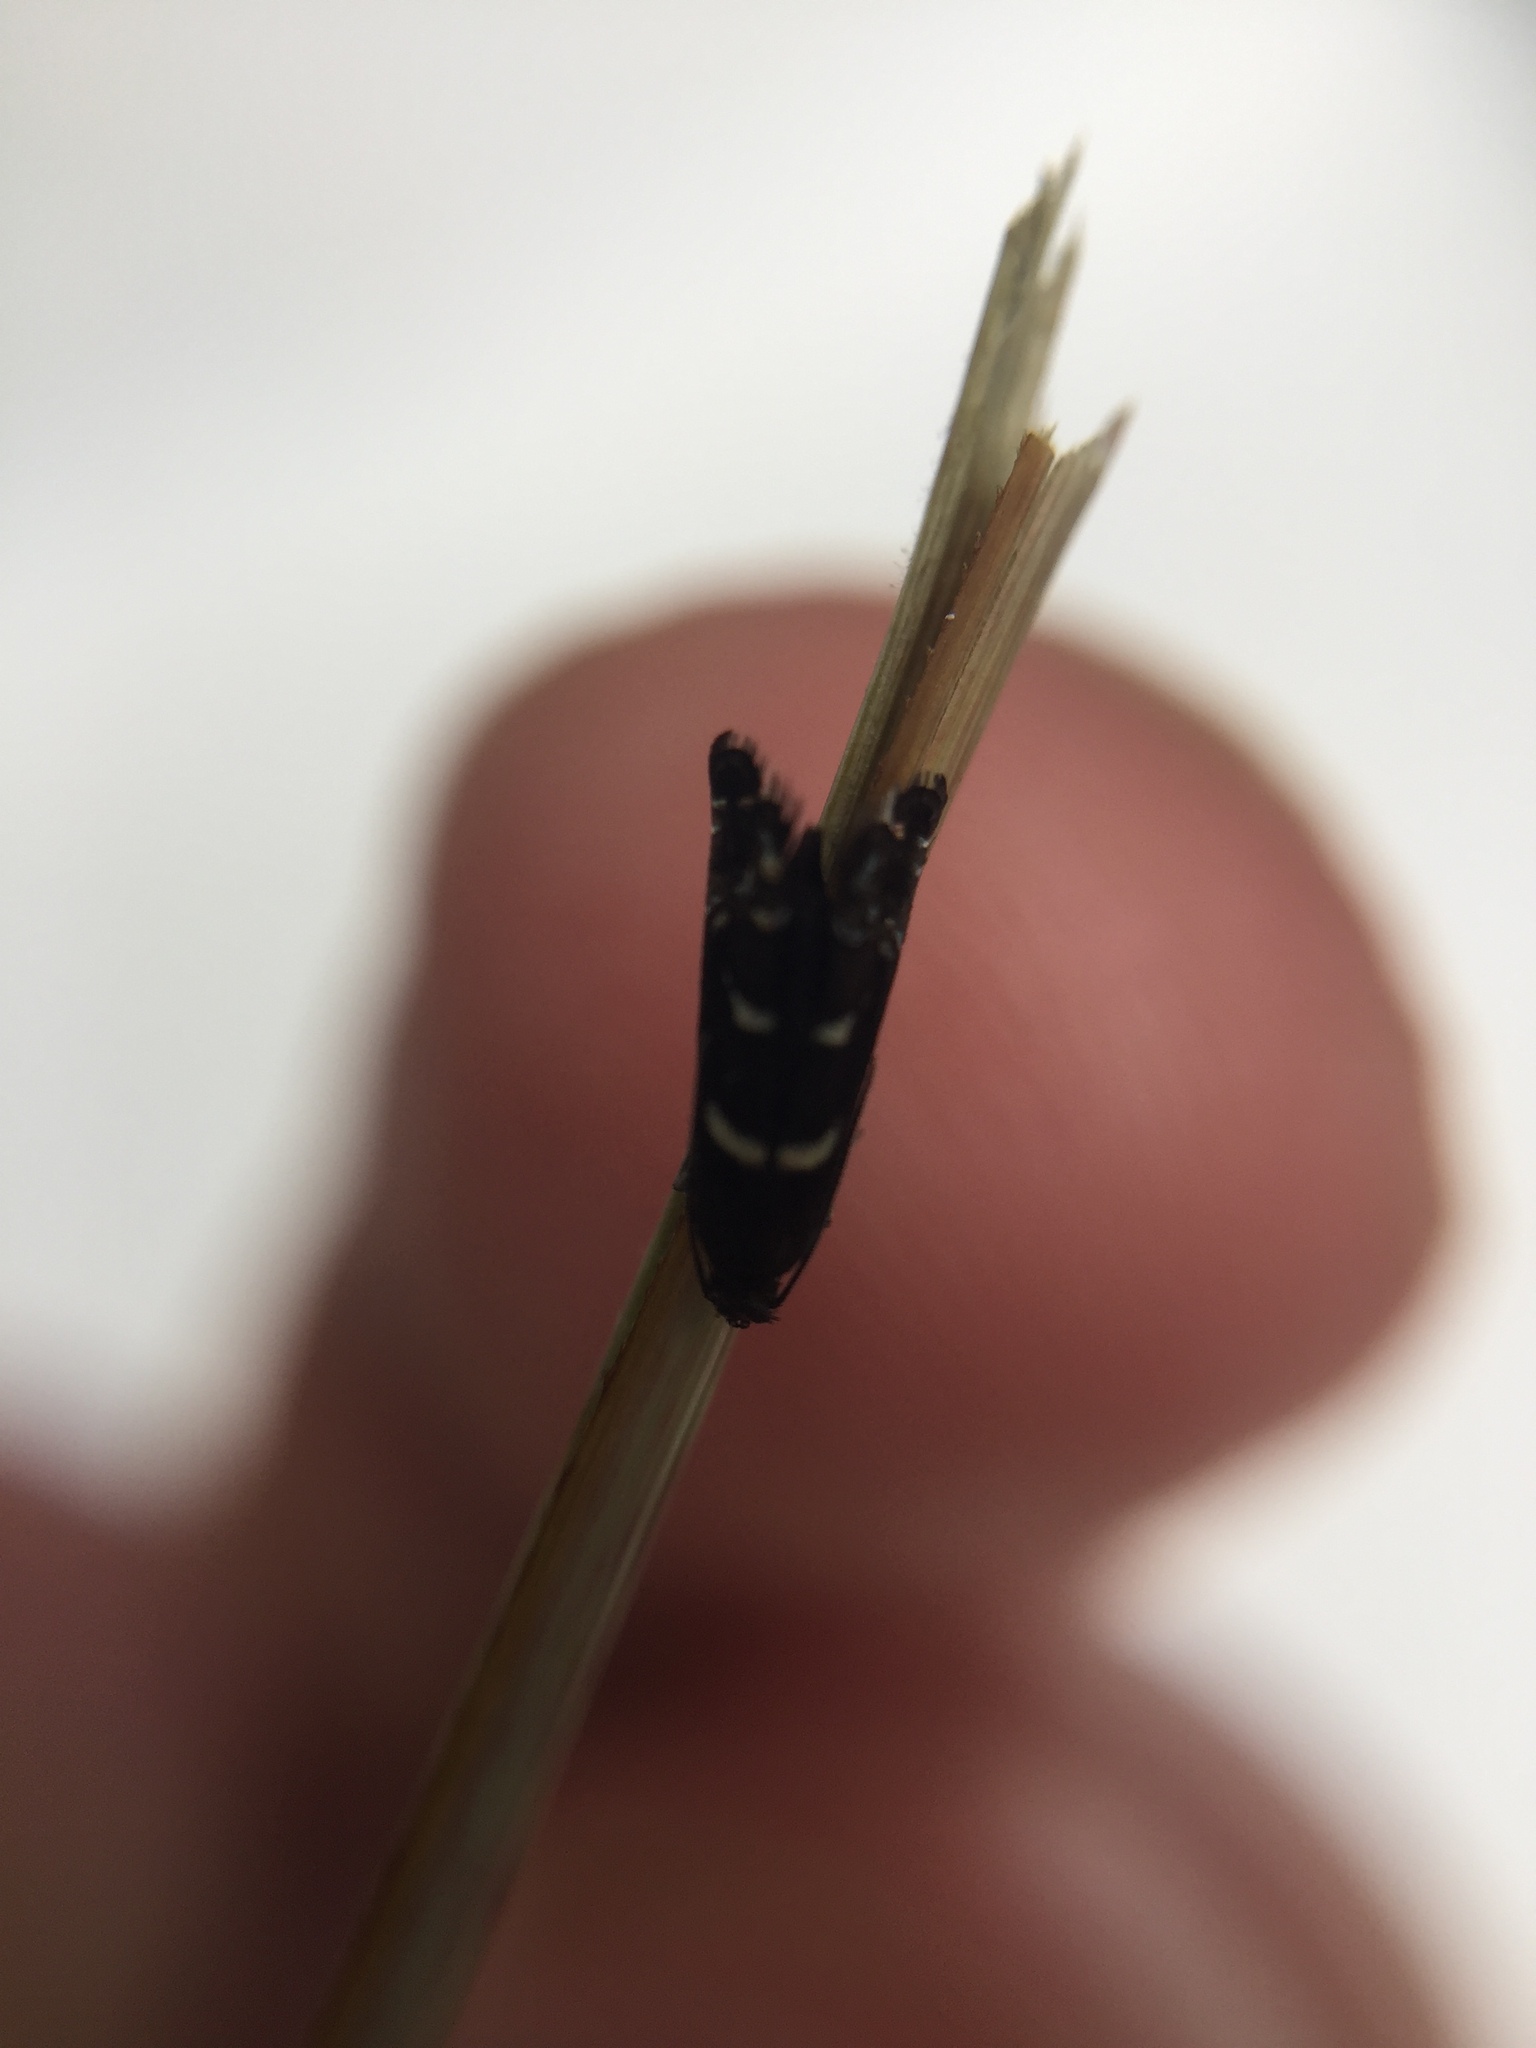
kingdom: Animalia
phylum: Arthropoda
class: Insecta
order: Lepidoptera
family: Glyphipterigidae
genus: Glyphipterix
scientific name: Glyphipterix dichorda
